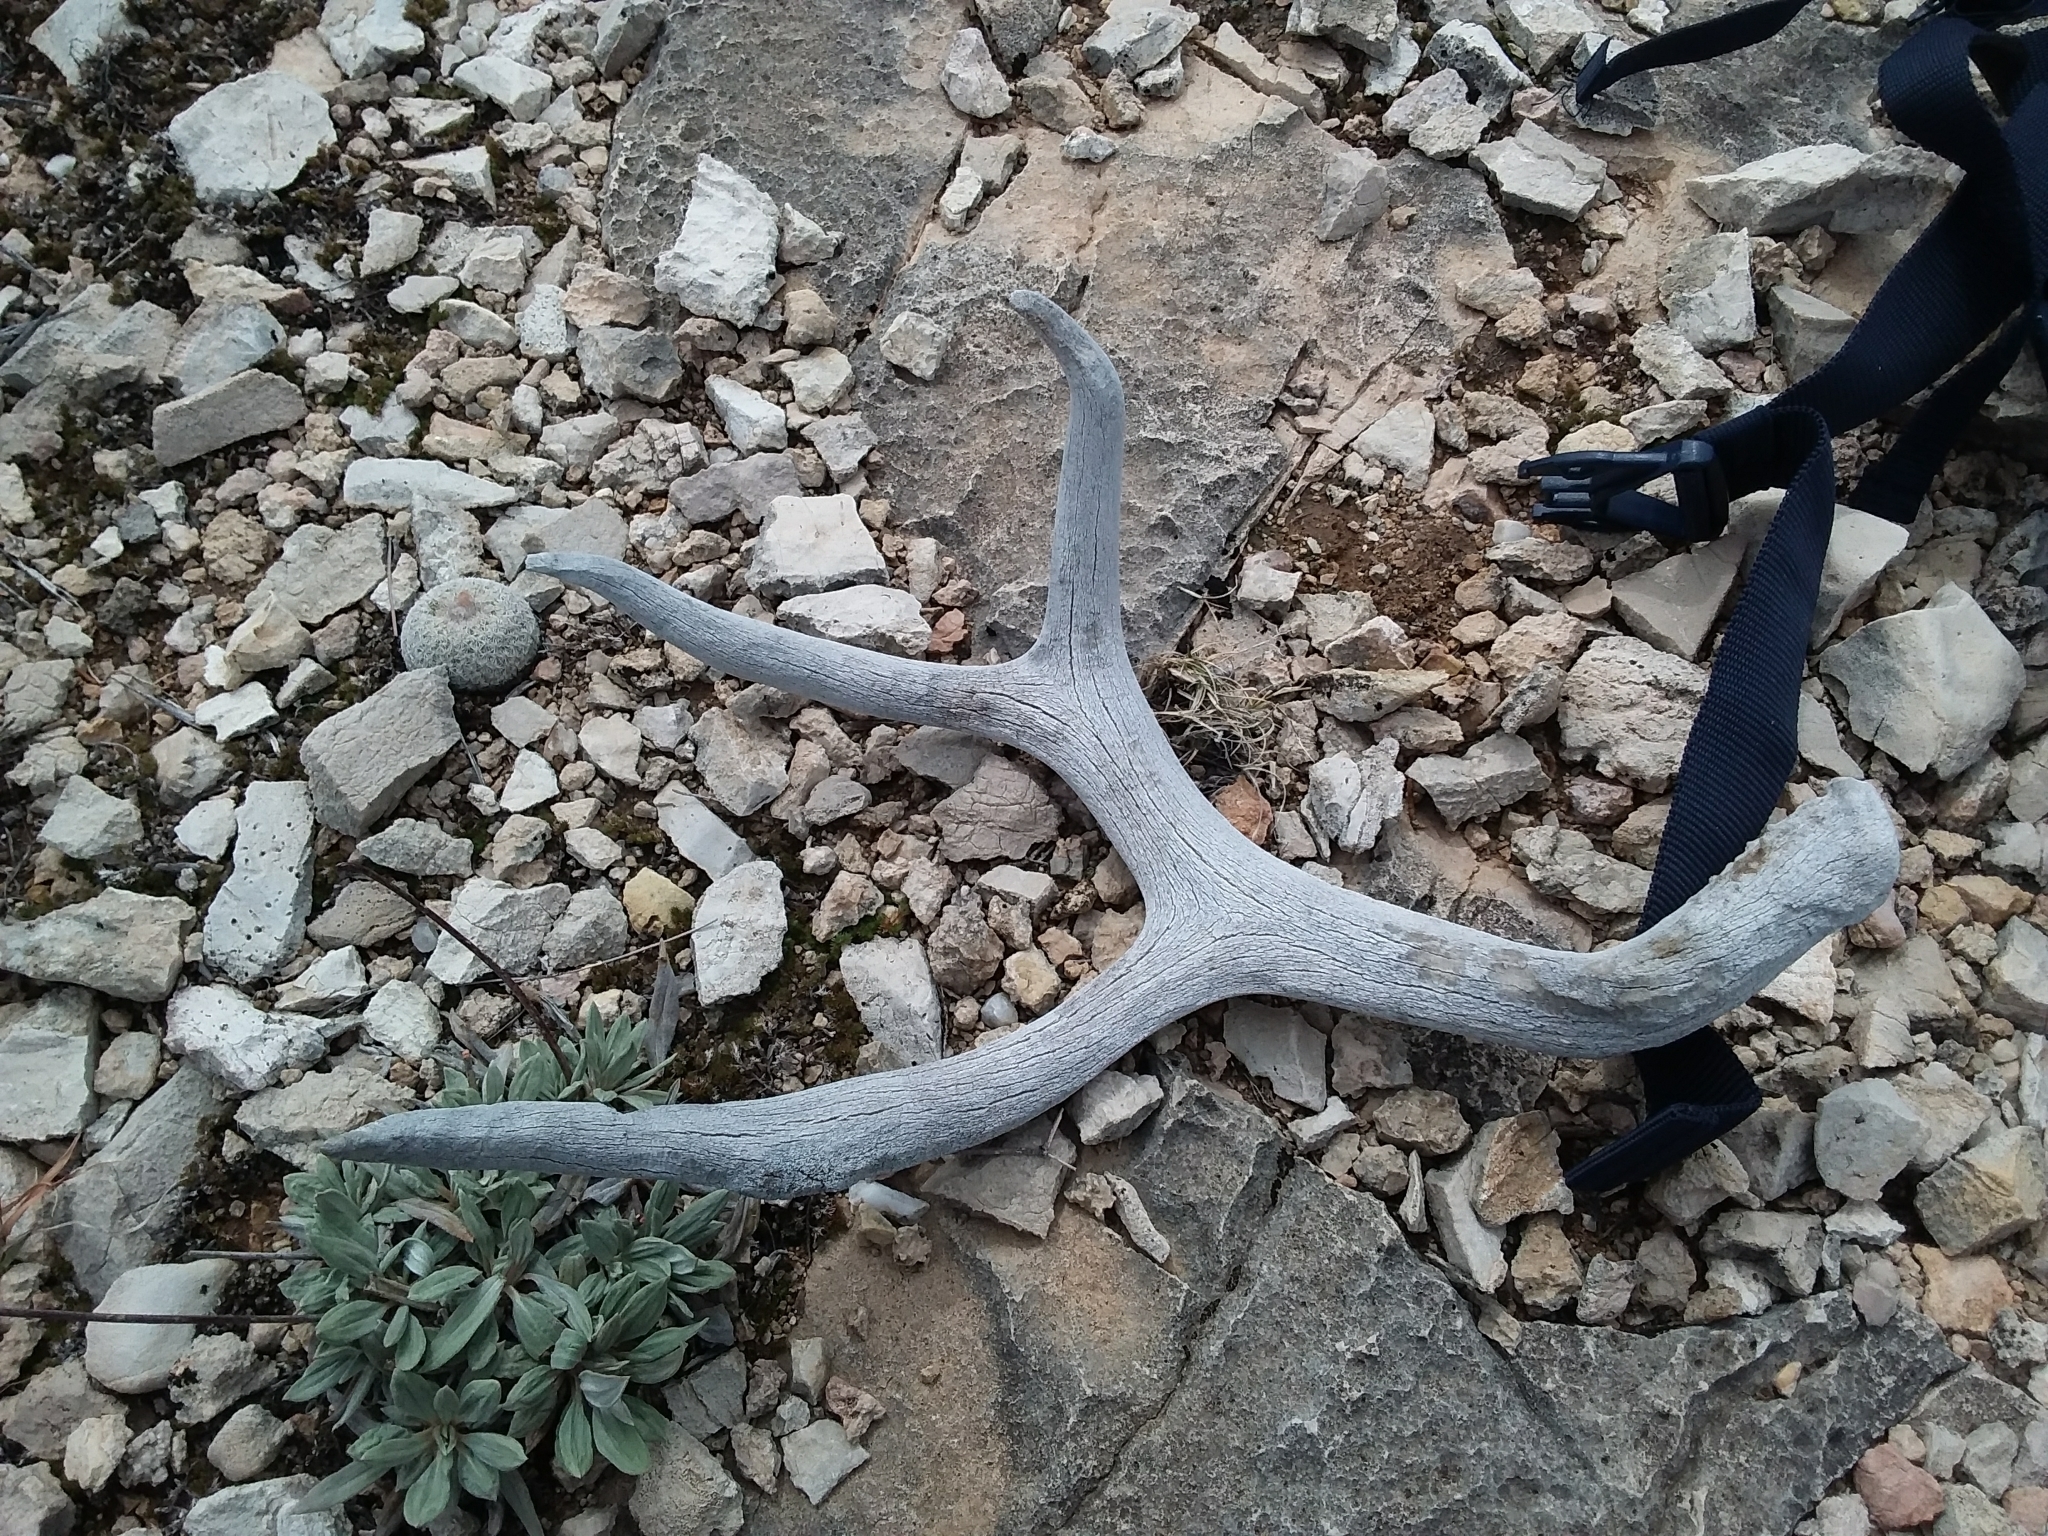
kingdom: Animalia
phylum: Chordata
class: Mammalia
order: Artiodactyla
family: Cervidae
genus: Odocoileus
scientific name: Odocoileus hemionus
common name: Mule deer
